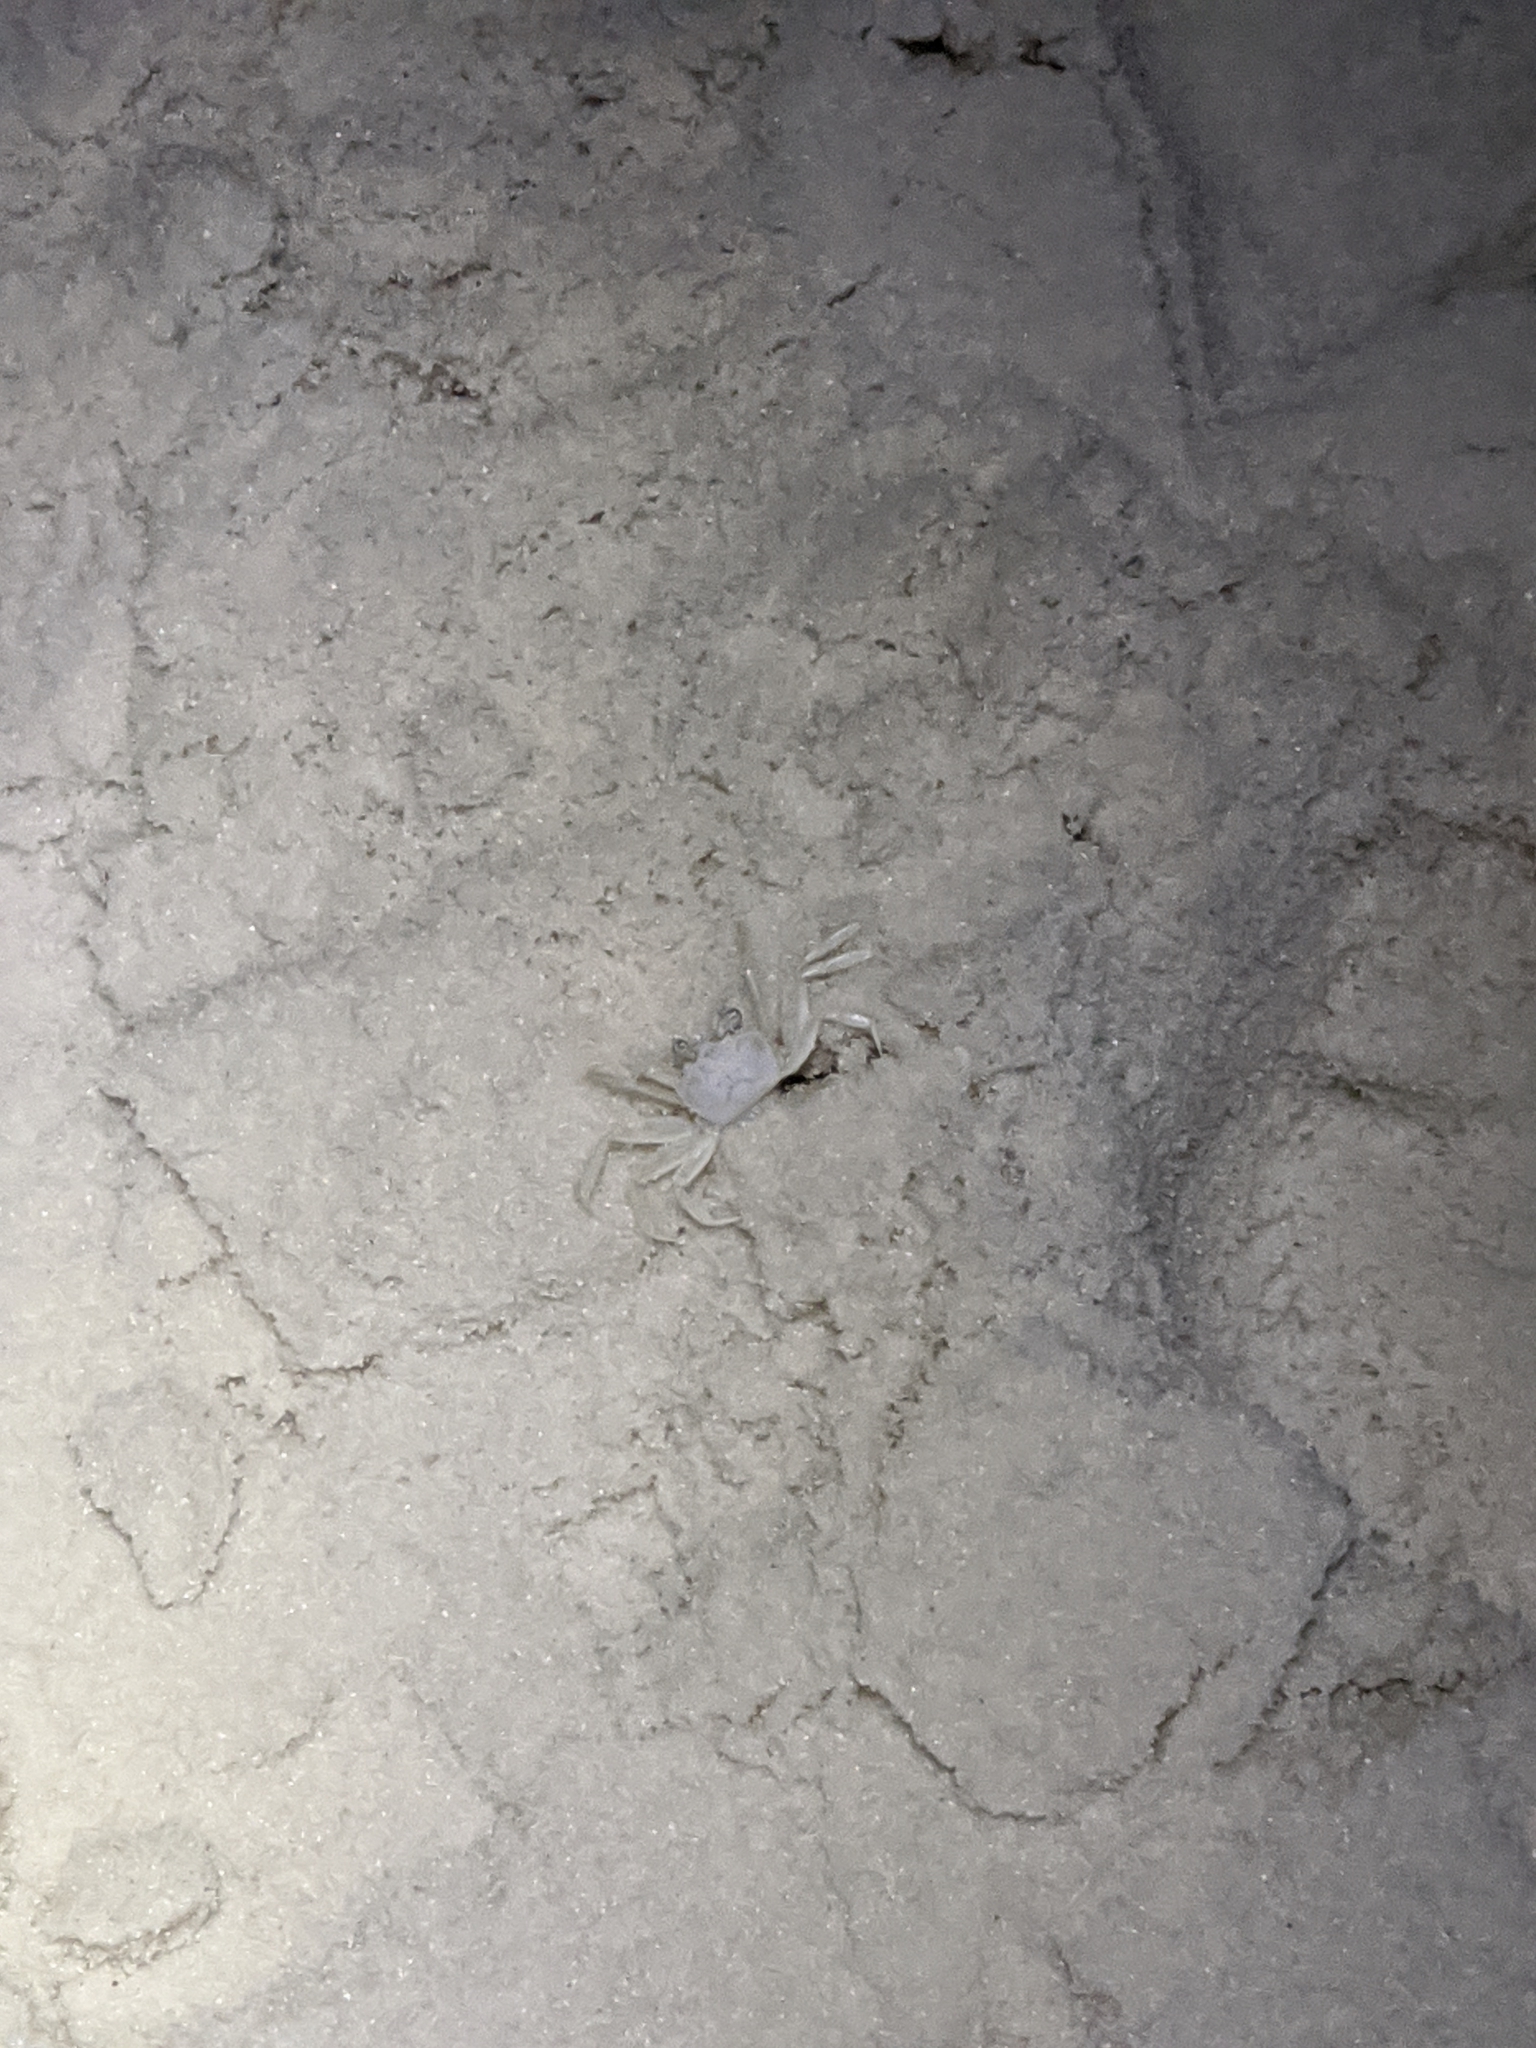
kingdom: Animalia
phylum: Arthropoda
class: Malacostraca
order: Decapoda
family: Ocypodidae
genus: Ocypode
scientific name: Ocypode quadrata
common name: Ghost crab
